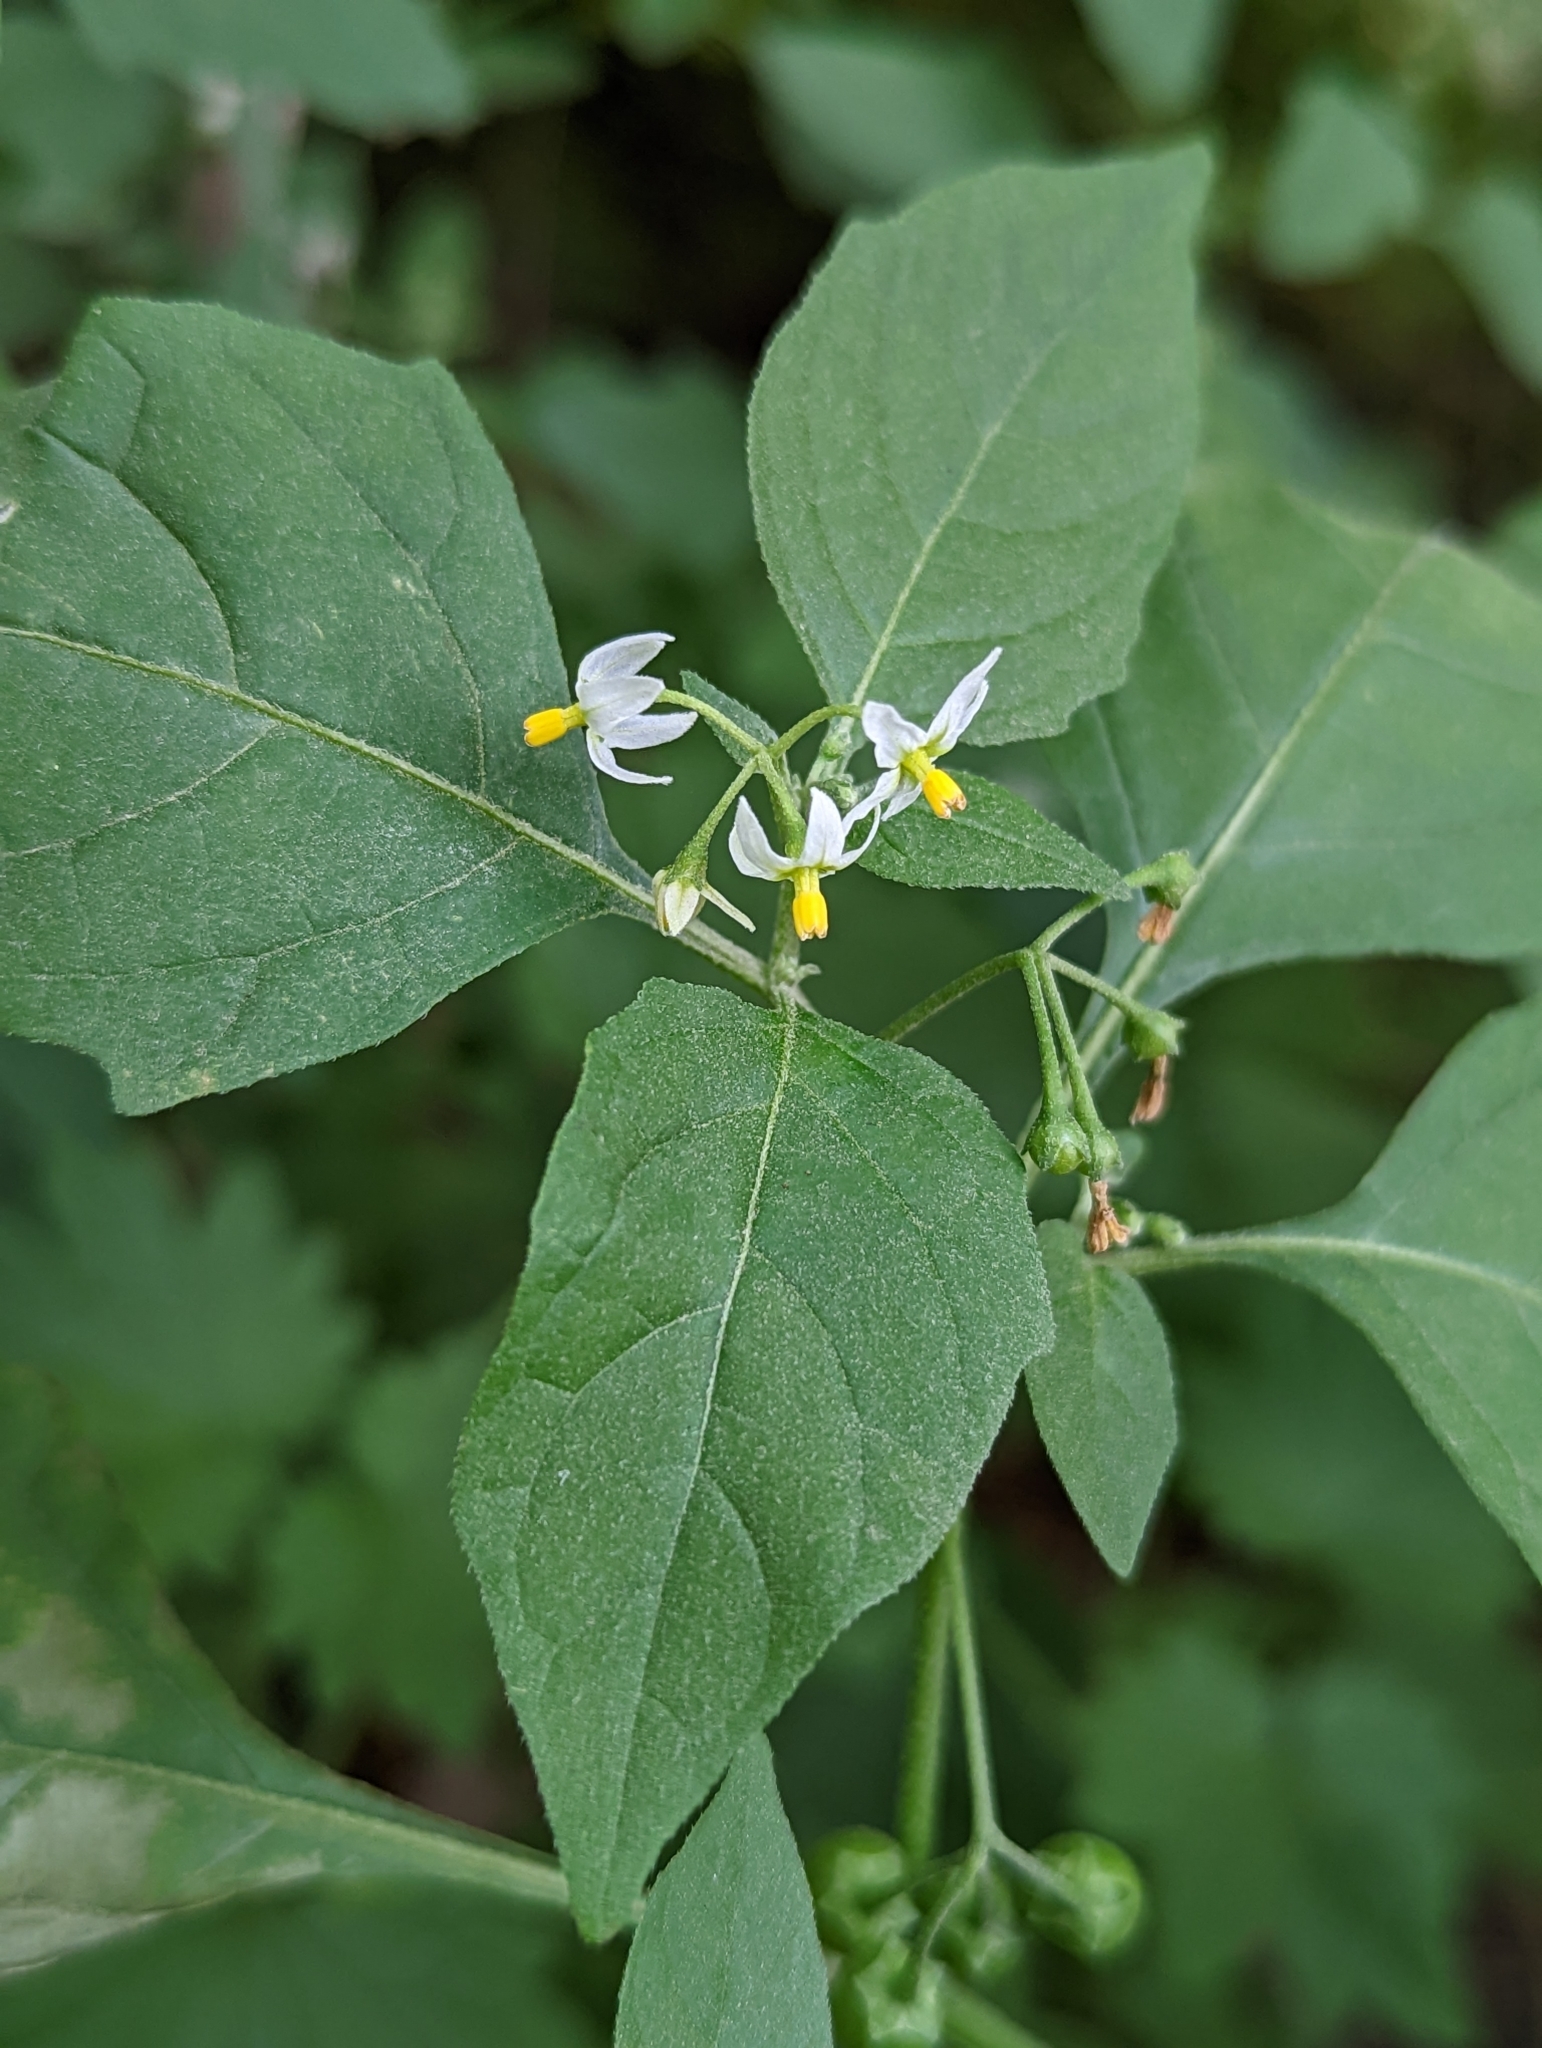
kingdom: Plantae
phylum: Tracheophyta
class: Magnoliopsida
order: Solanales
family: Solanaceae
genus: Solanum
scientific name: Solanum emulans
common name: Eastern black nightshade
